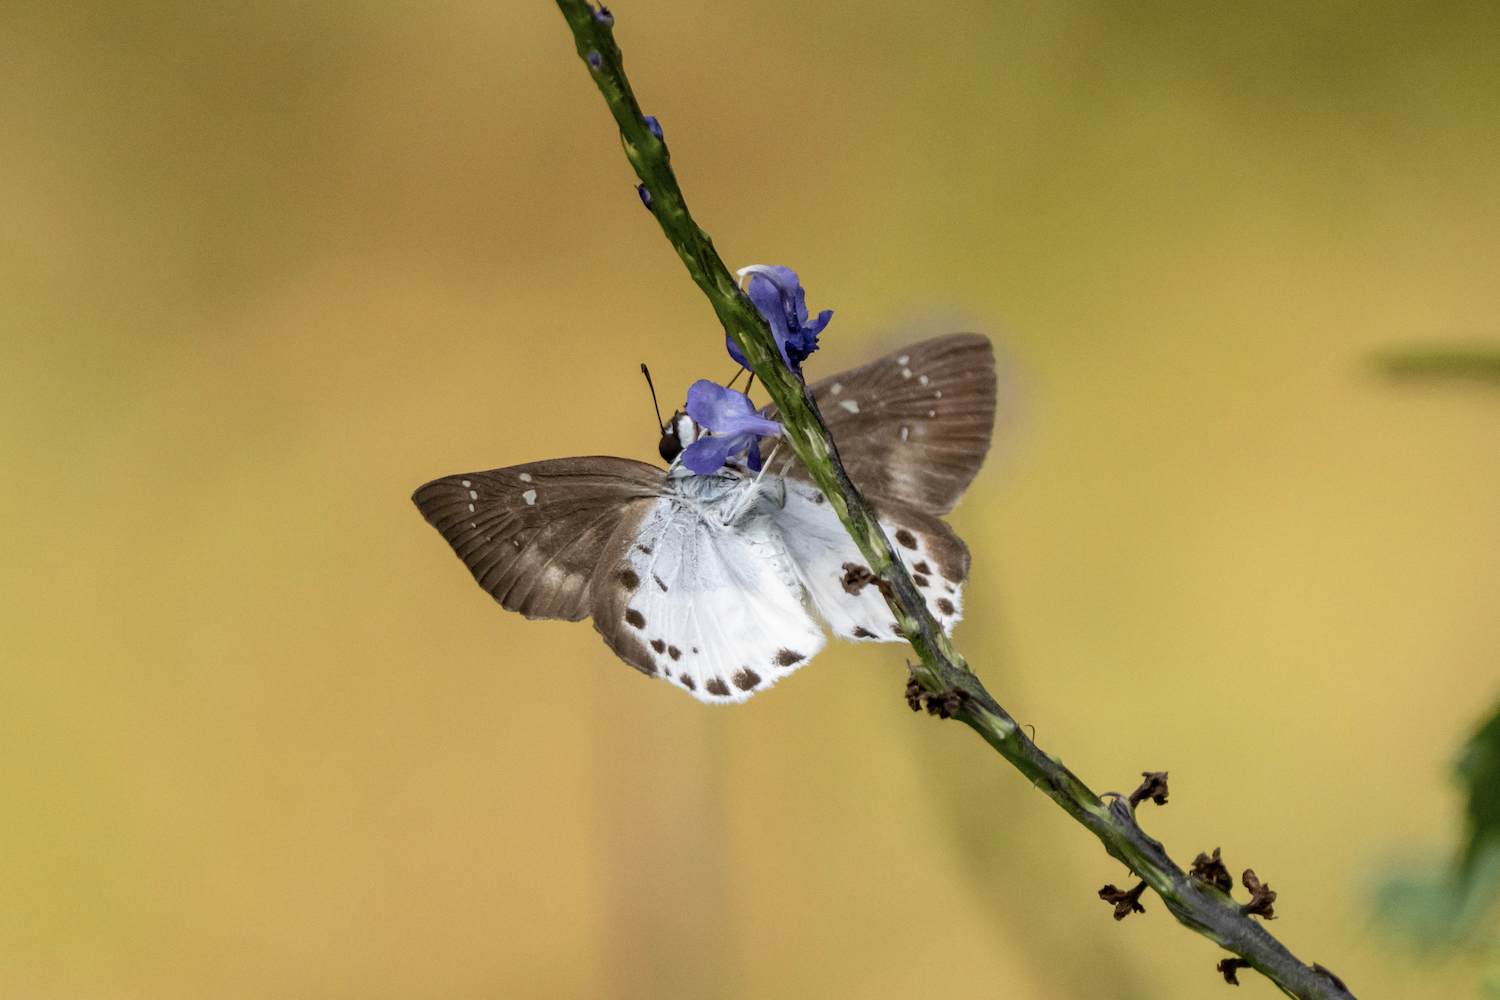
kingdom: Animalia
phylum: Arthropoda
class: Insecta
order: Lepidoptera
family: Hesperiidae
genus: Tagiades
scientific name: Tagiades menaka
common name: Dark-edged snow flat
